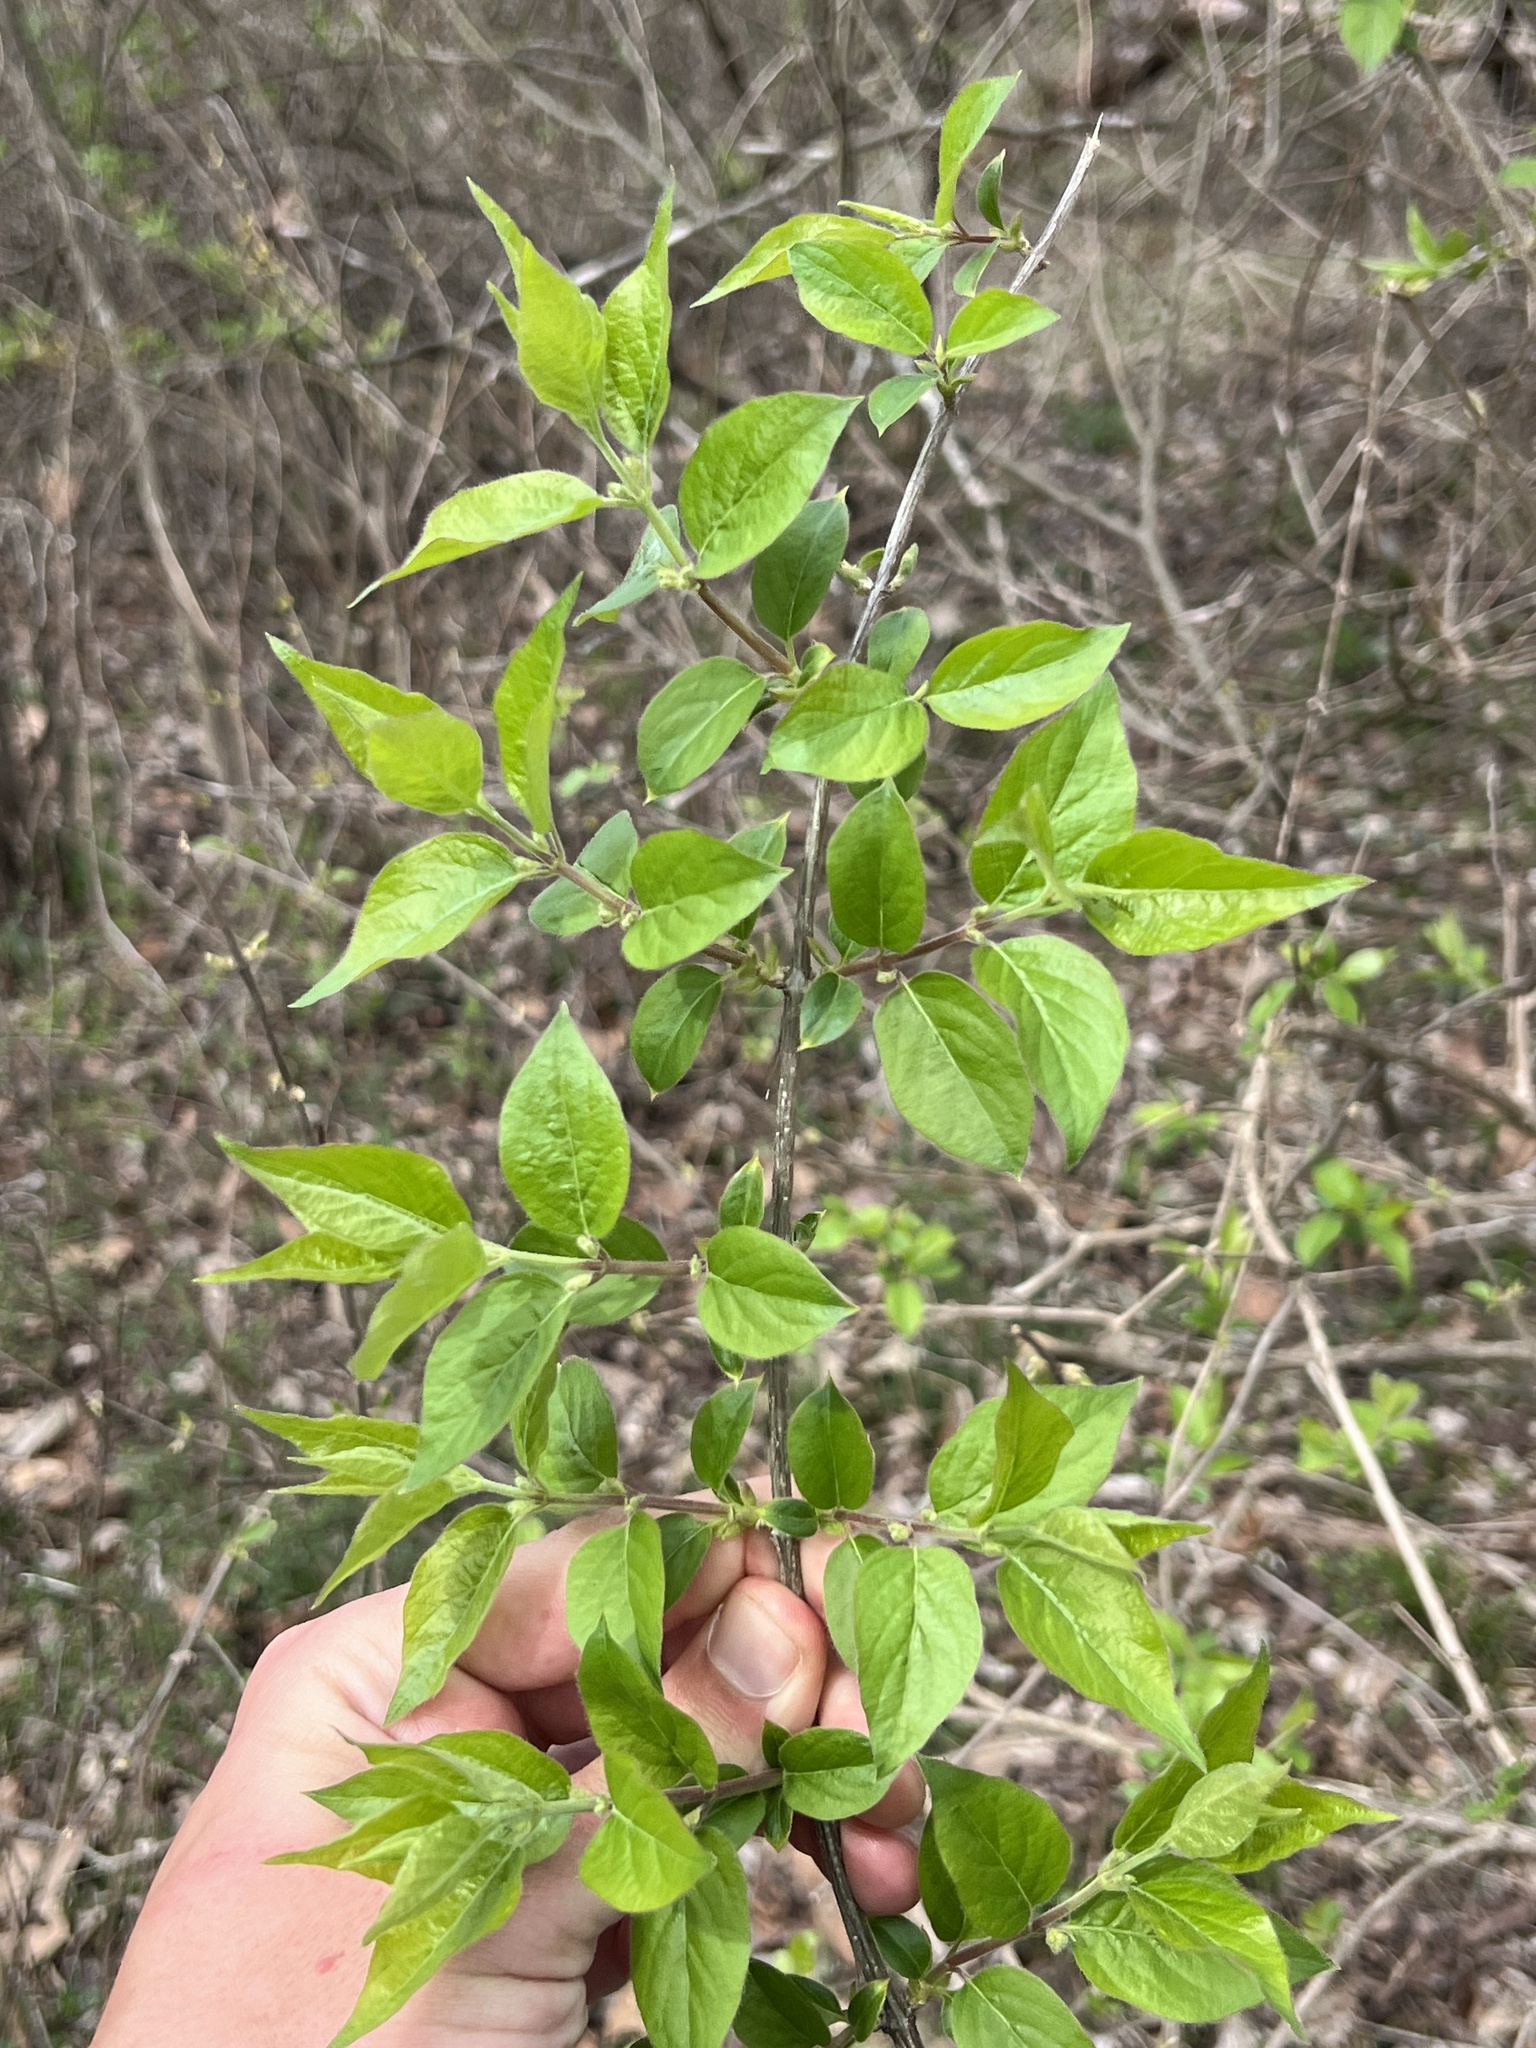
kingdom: Plantae
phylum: Tracheophyta
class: Magnoliopsida
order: Dipsacales
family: Caprifoliaceae
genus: Lonicera
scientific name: Lonicera maackii
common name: Amur honeysuckle
